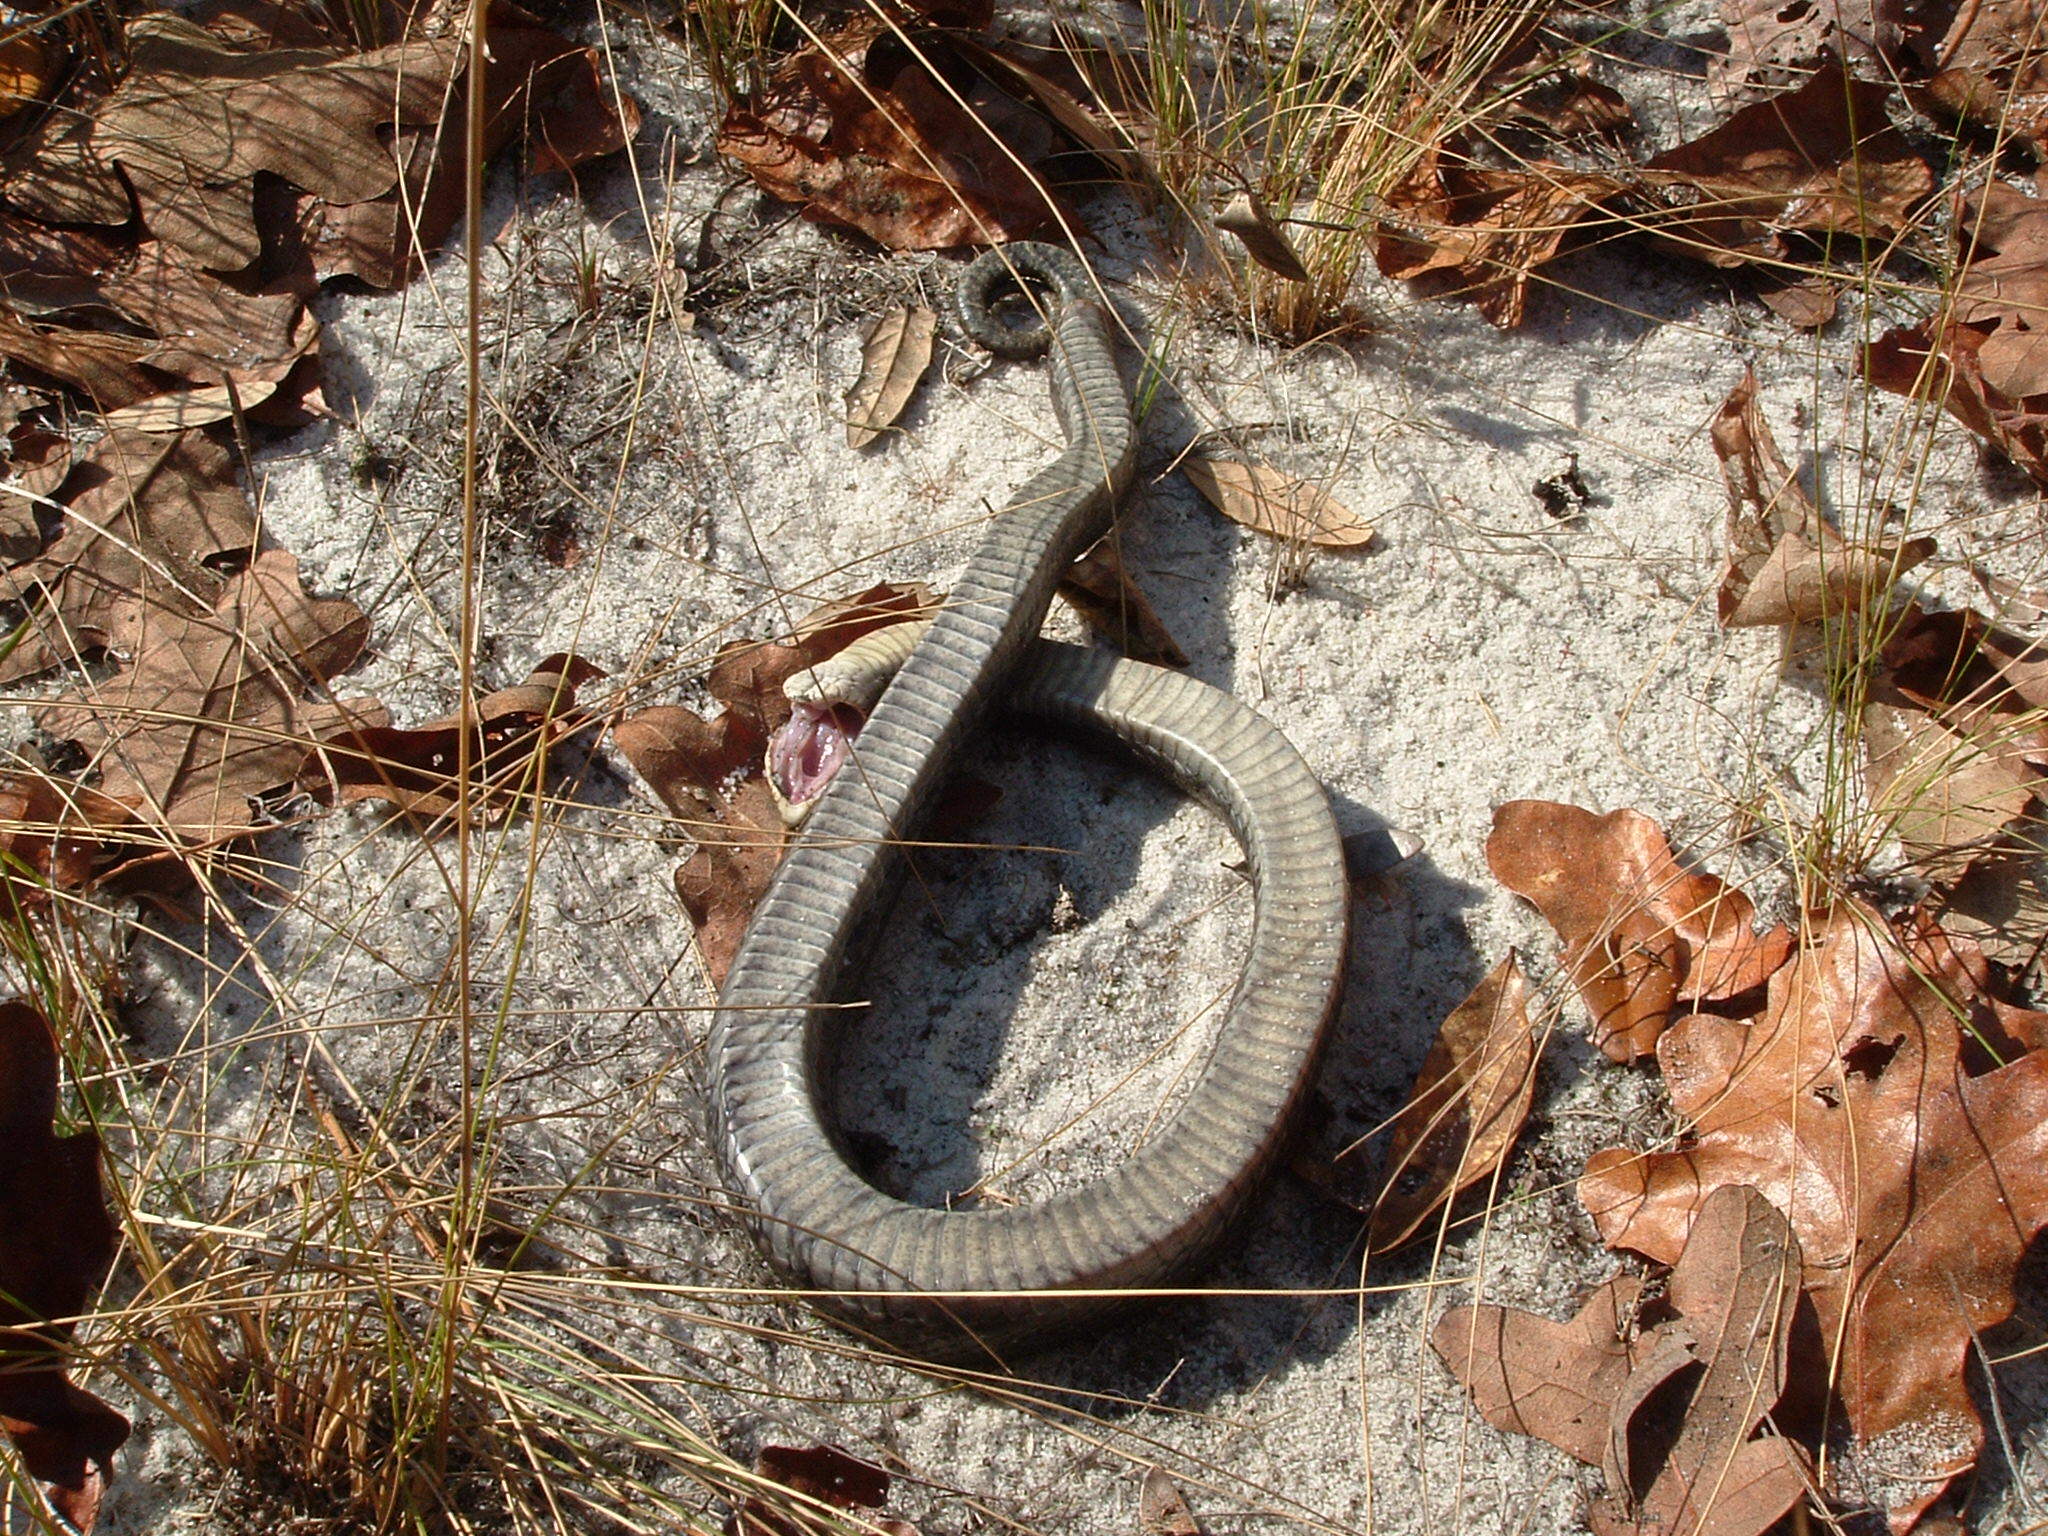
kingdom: Animalia
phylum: Chordata
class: Squamata
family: Colubridae
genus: Heterodon
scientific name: Heterodon platirhinos
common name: Eastern hognose snake
